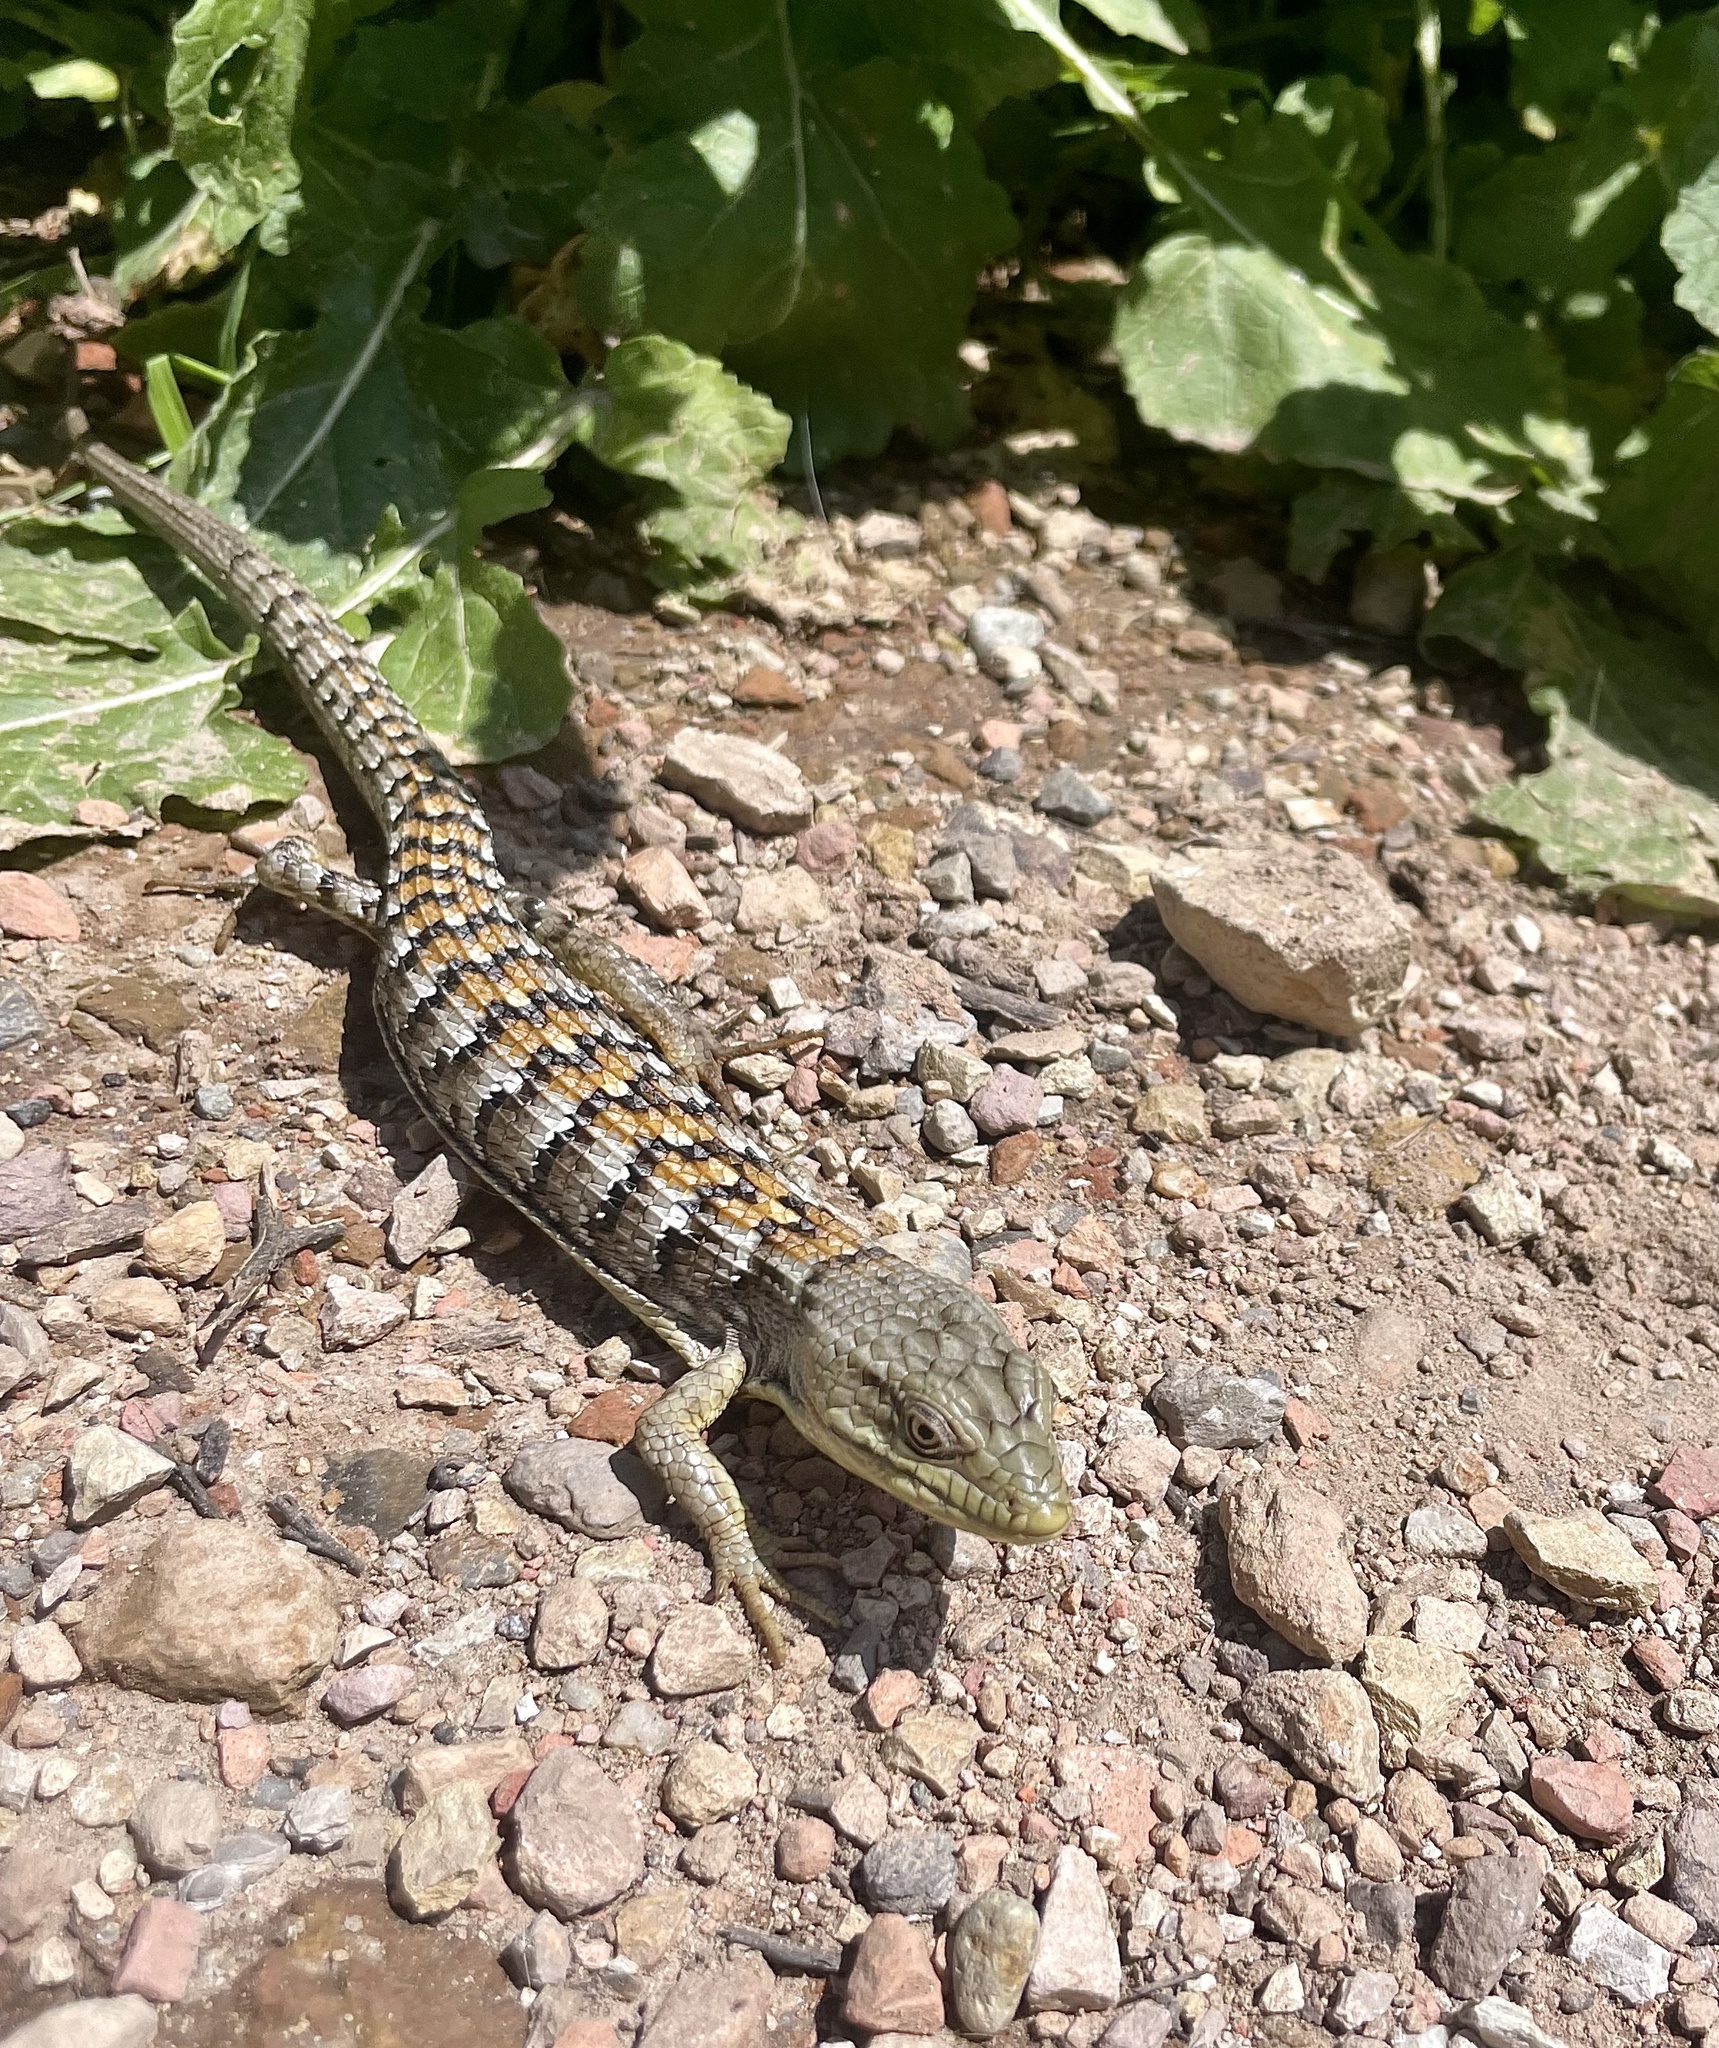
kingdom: Animalia
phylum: Chordata
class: Squamata
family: Anguidae
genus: Elgaria
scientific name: Elgaria multicarinata
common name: Southern alligator lizard
